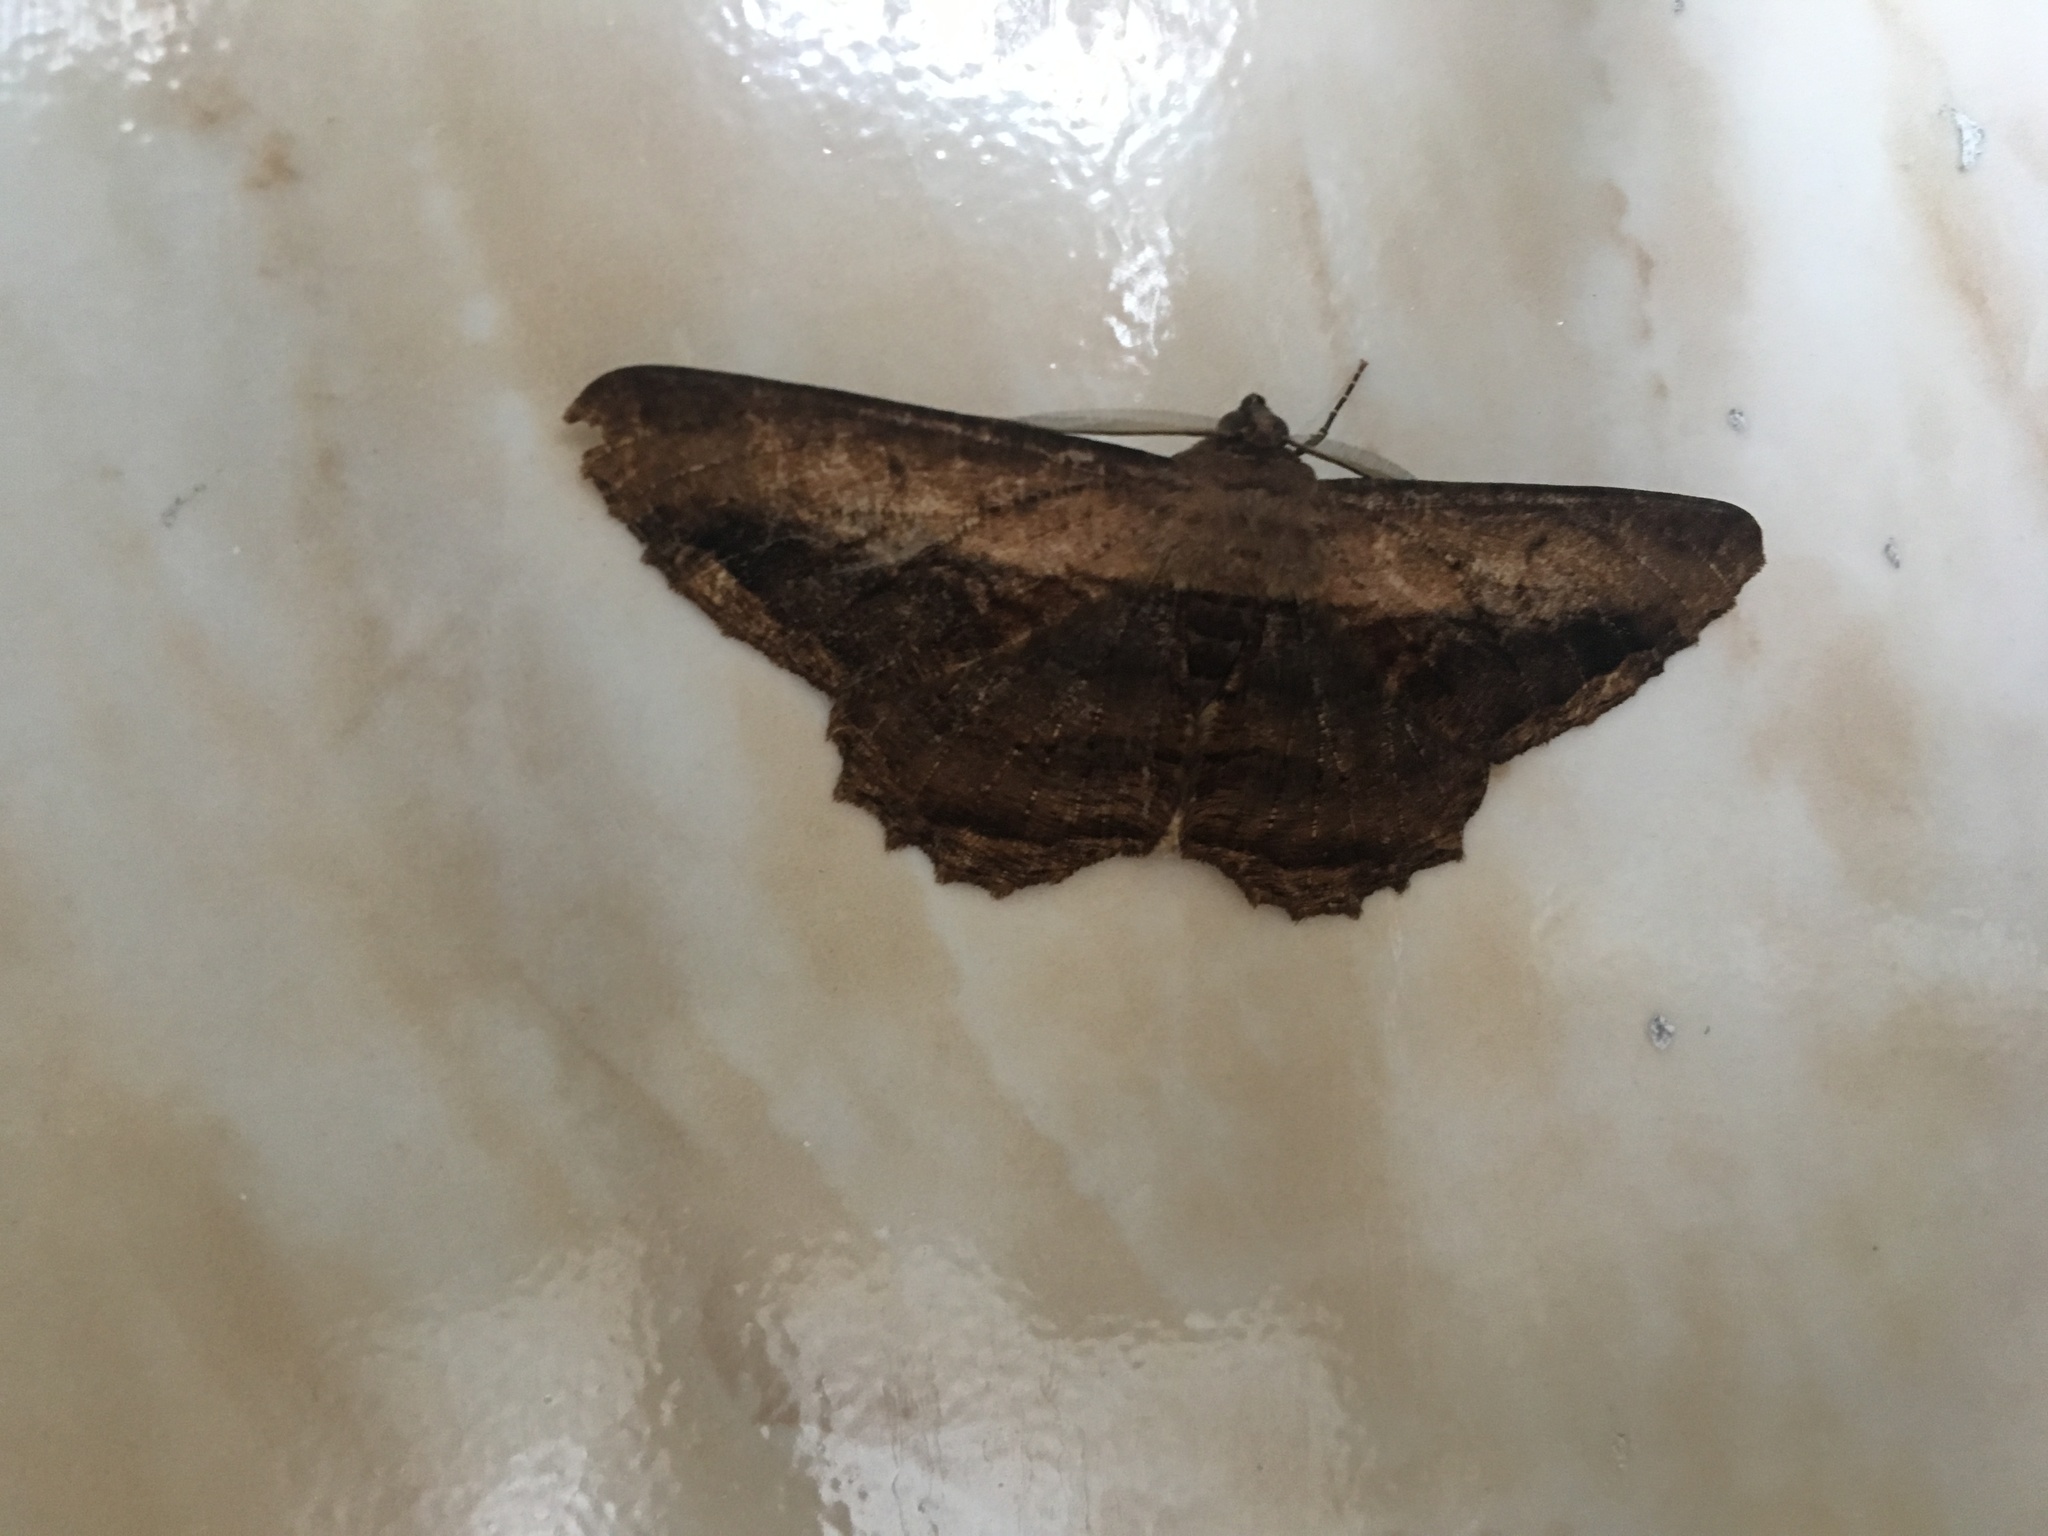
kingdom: Animalia
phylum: Arthropoda
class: Insecta
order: Lepidoptera
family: Geometridae
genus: Chorodna
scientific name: Chorodna pseudobolima
